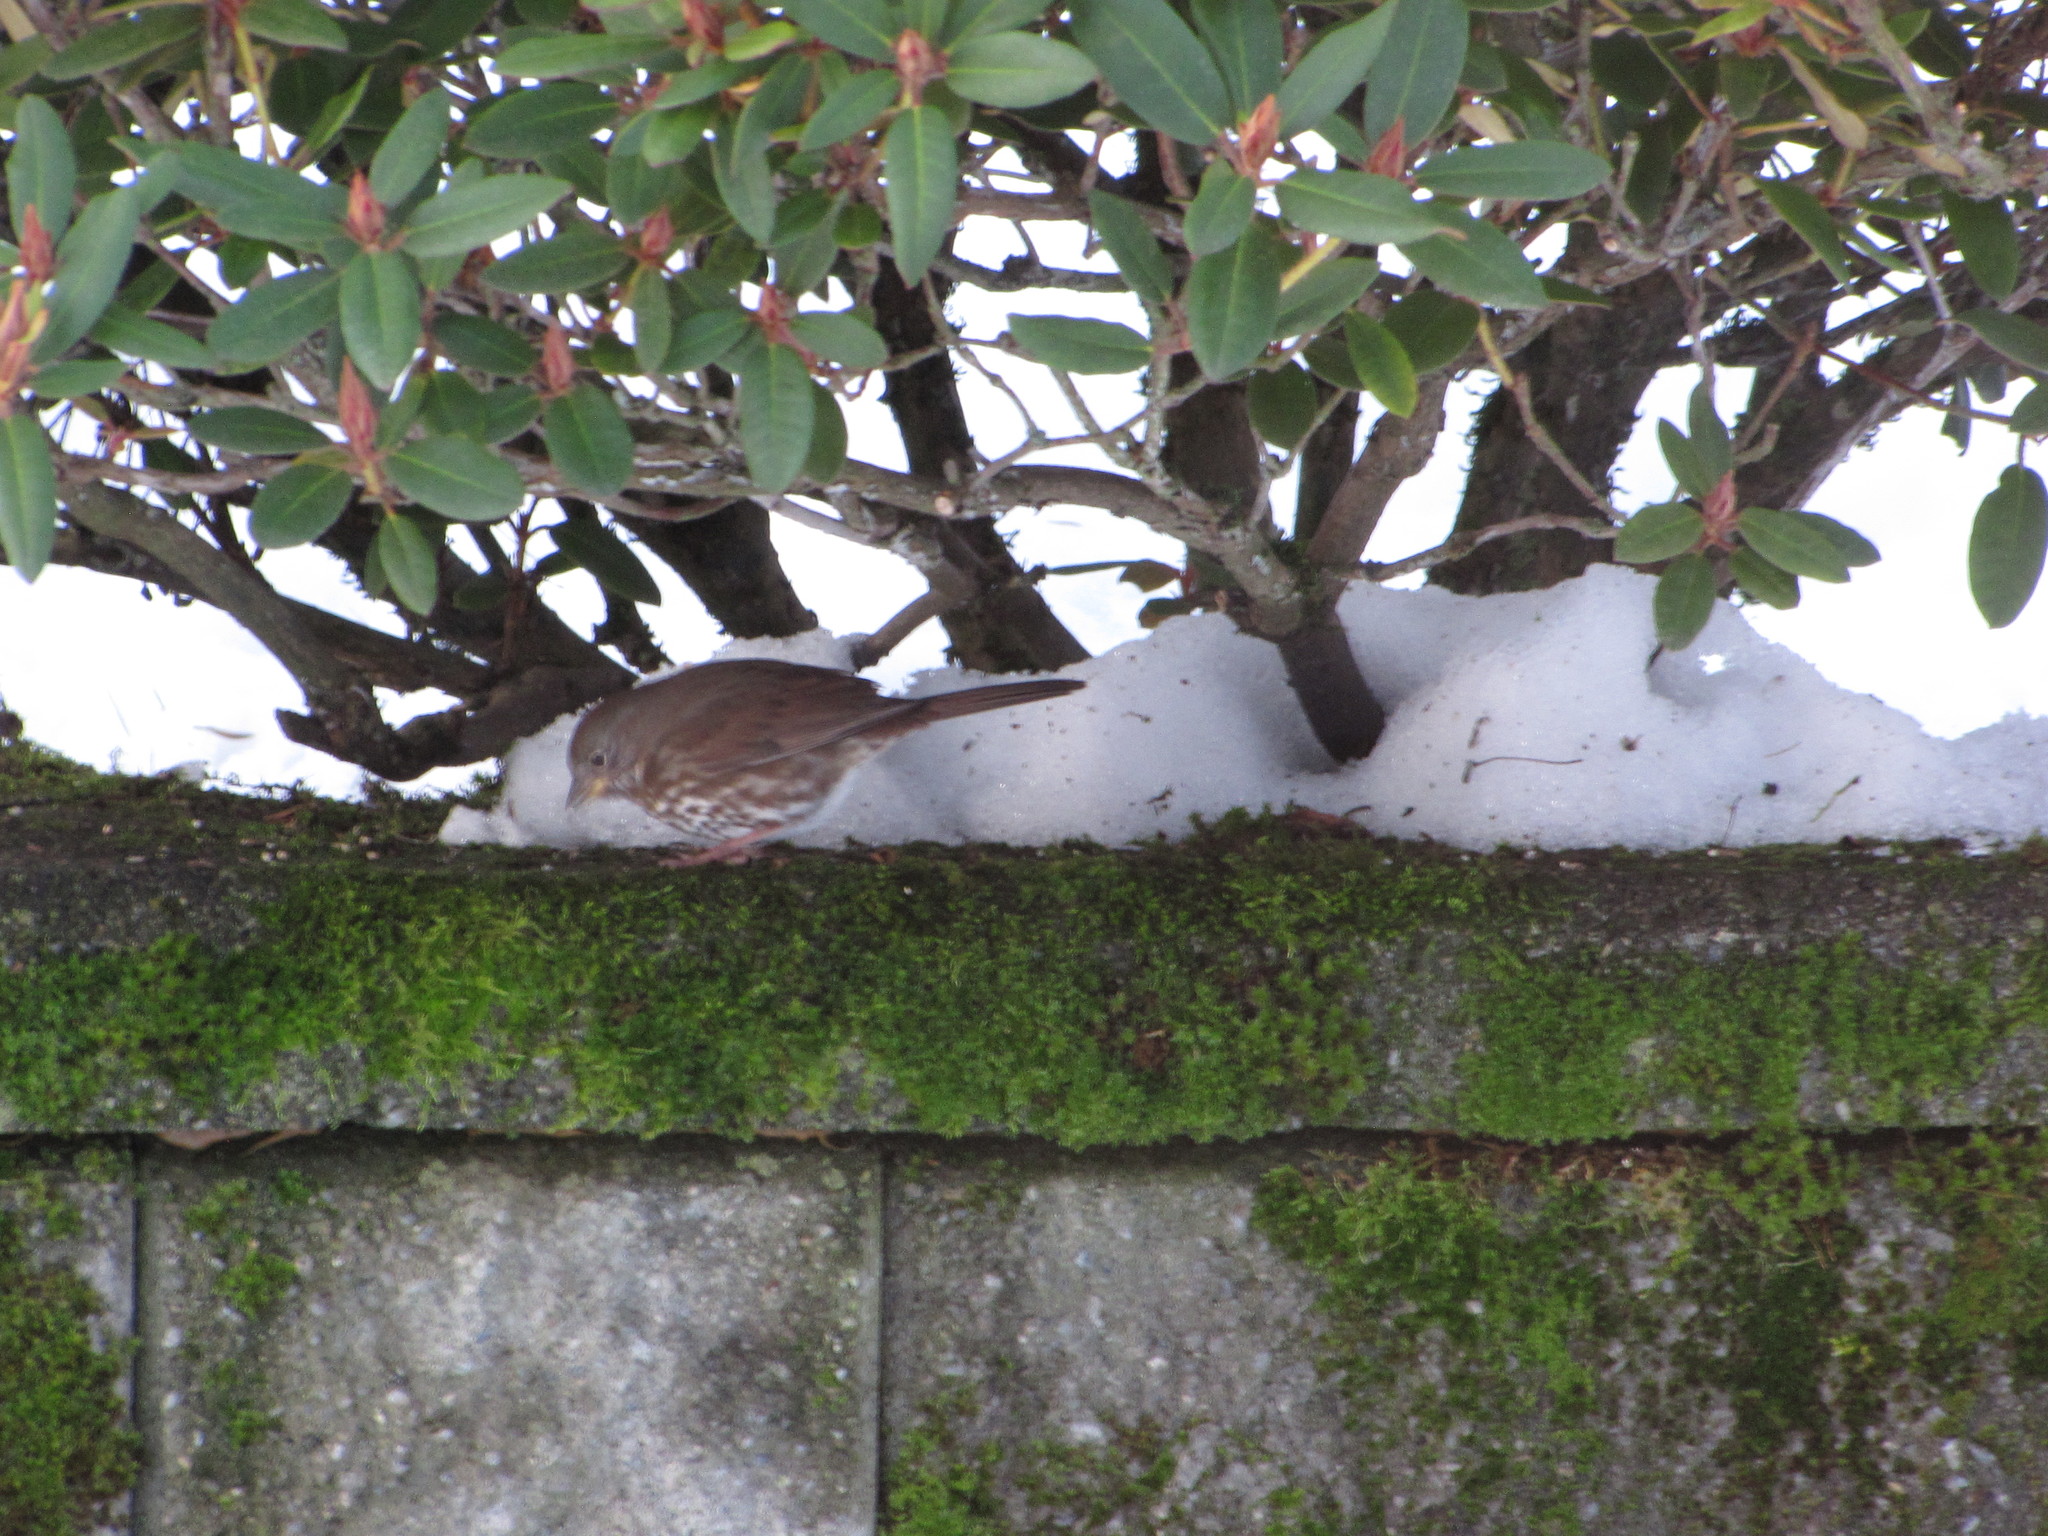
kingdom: Animalia
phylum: Chordata
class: Aves
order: Passeriformes
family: Passerellidae
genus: Passerella
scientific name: Passerella iliaca
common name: Fox sparrow
